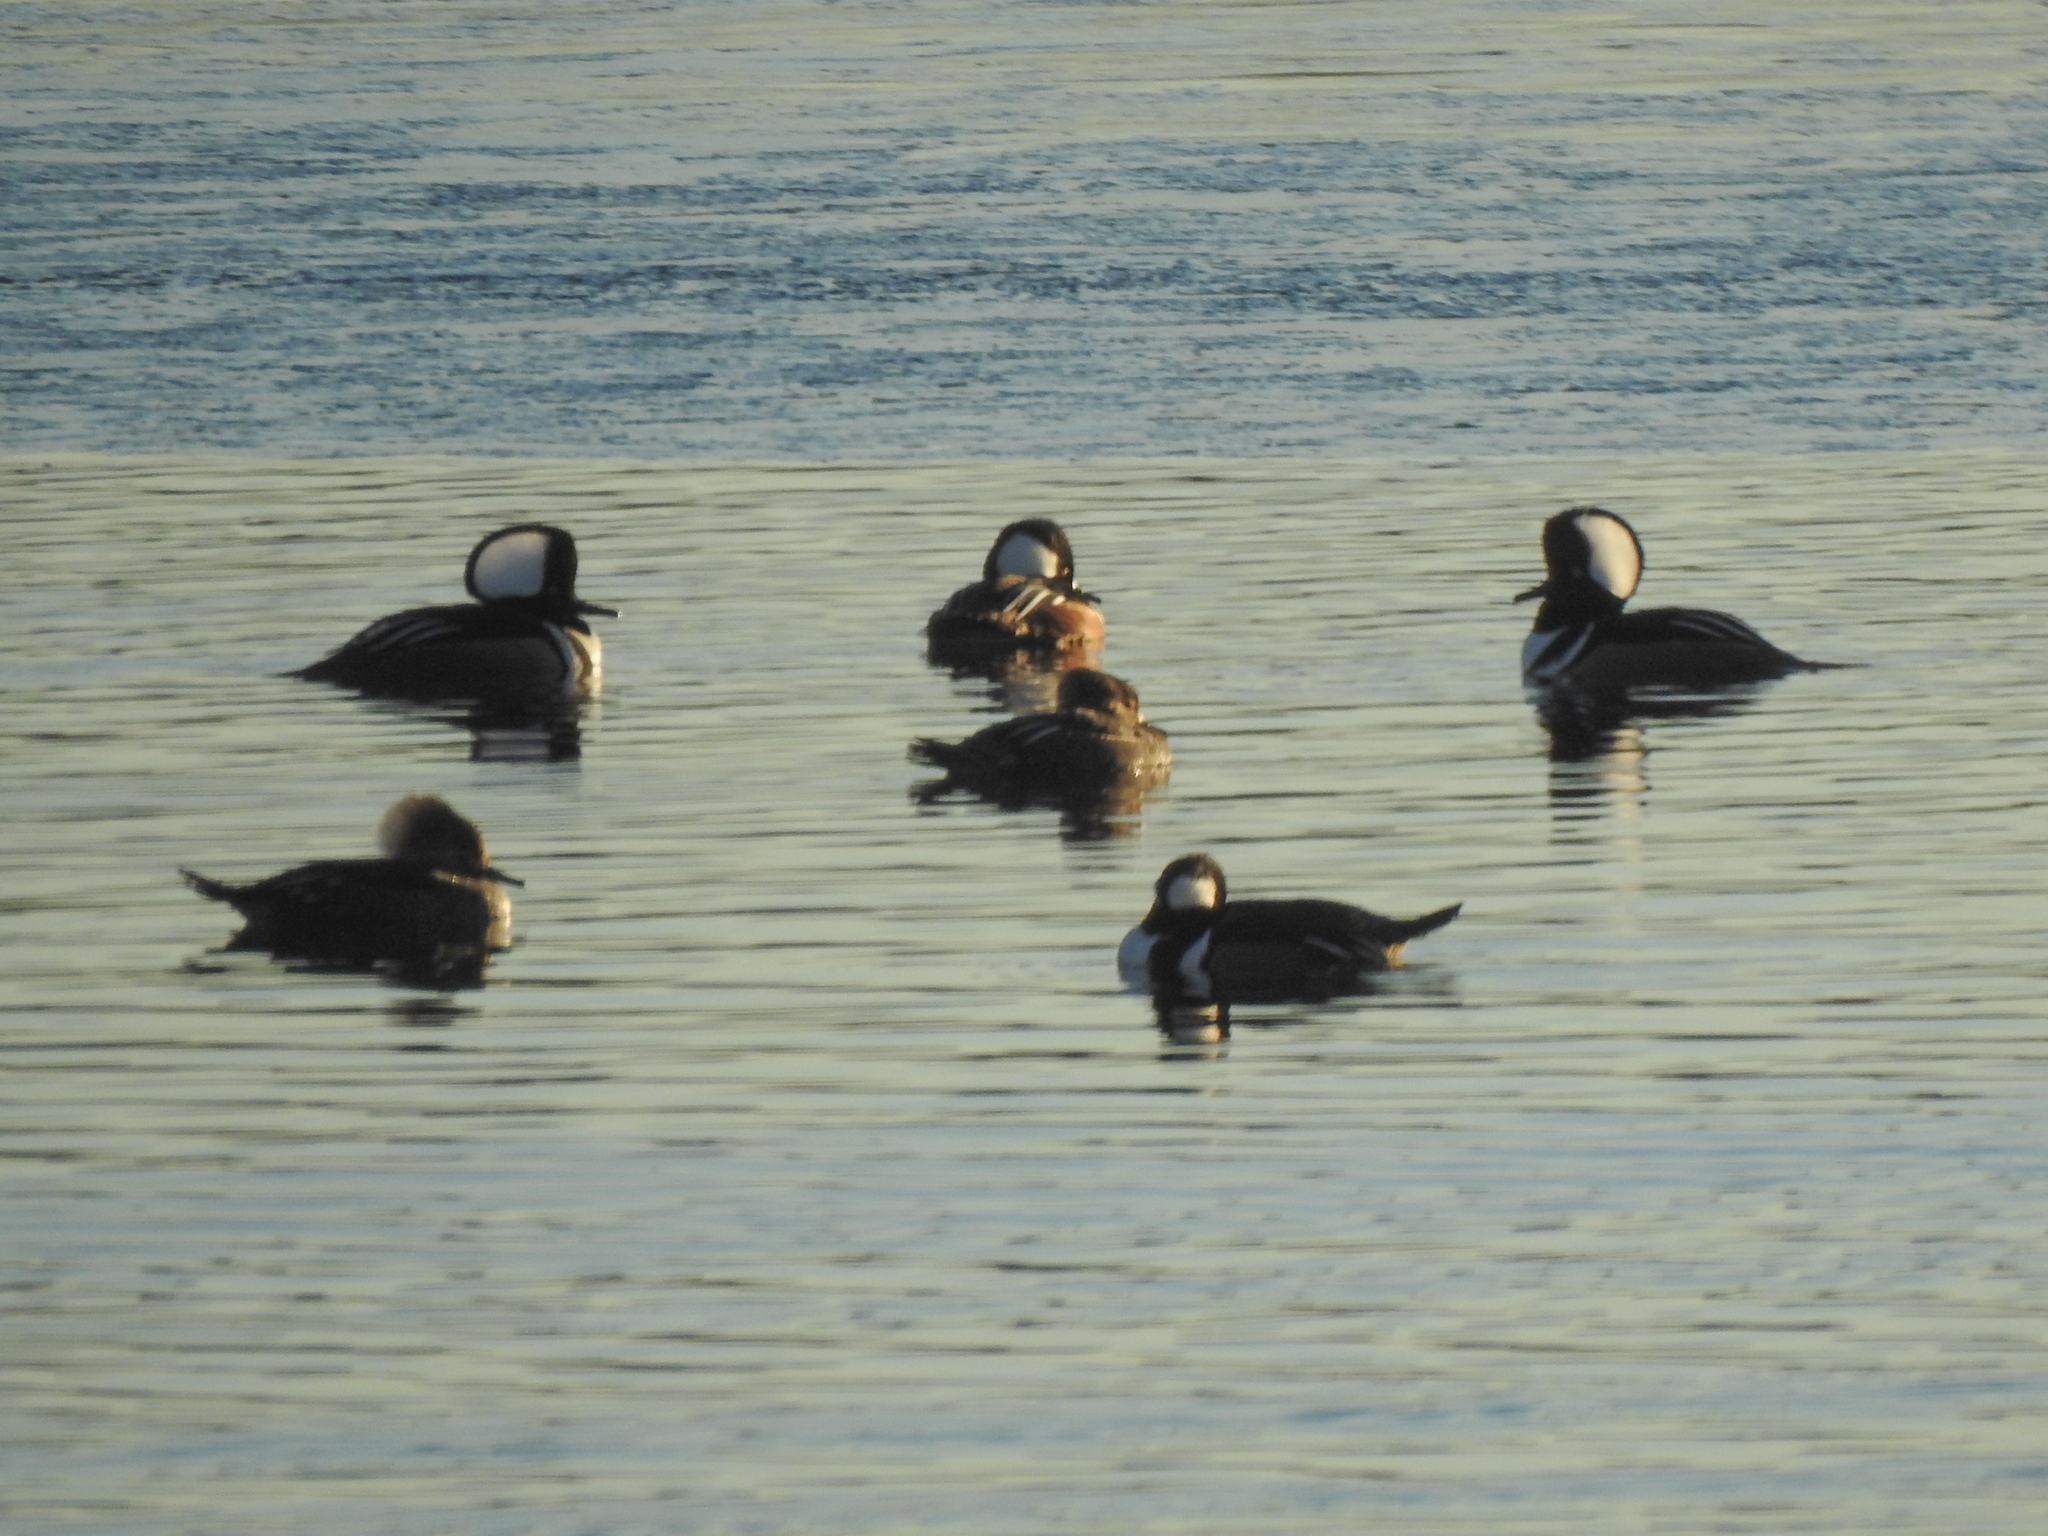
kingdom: Animalia
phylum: Chordata
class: Aves
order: Anseriformes
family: Anatidae
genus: Lophodytes
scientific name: Lophodytes cucullatus
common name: Hooded merganser
